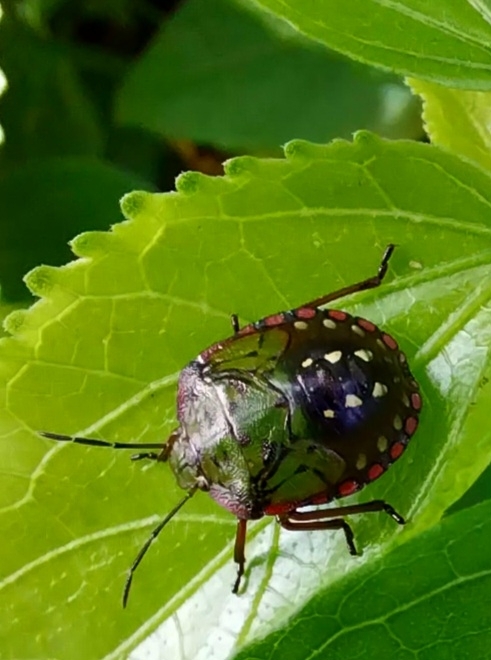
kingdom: Animalia
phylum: Arthropoda
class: Insecta
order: Hemiptera
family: Pentatomidae
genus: Nezara
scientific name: Nezara viridula
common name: Southern green stink bug
